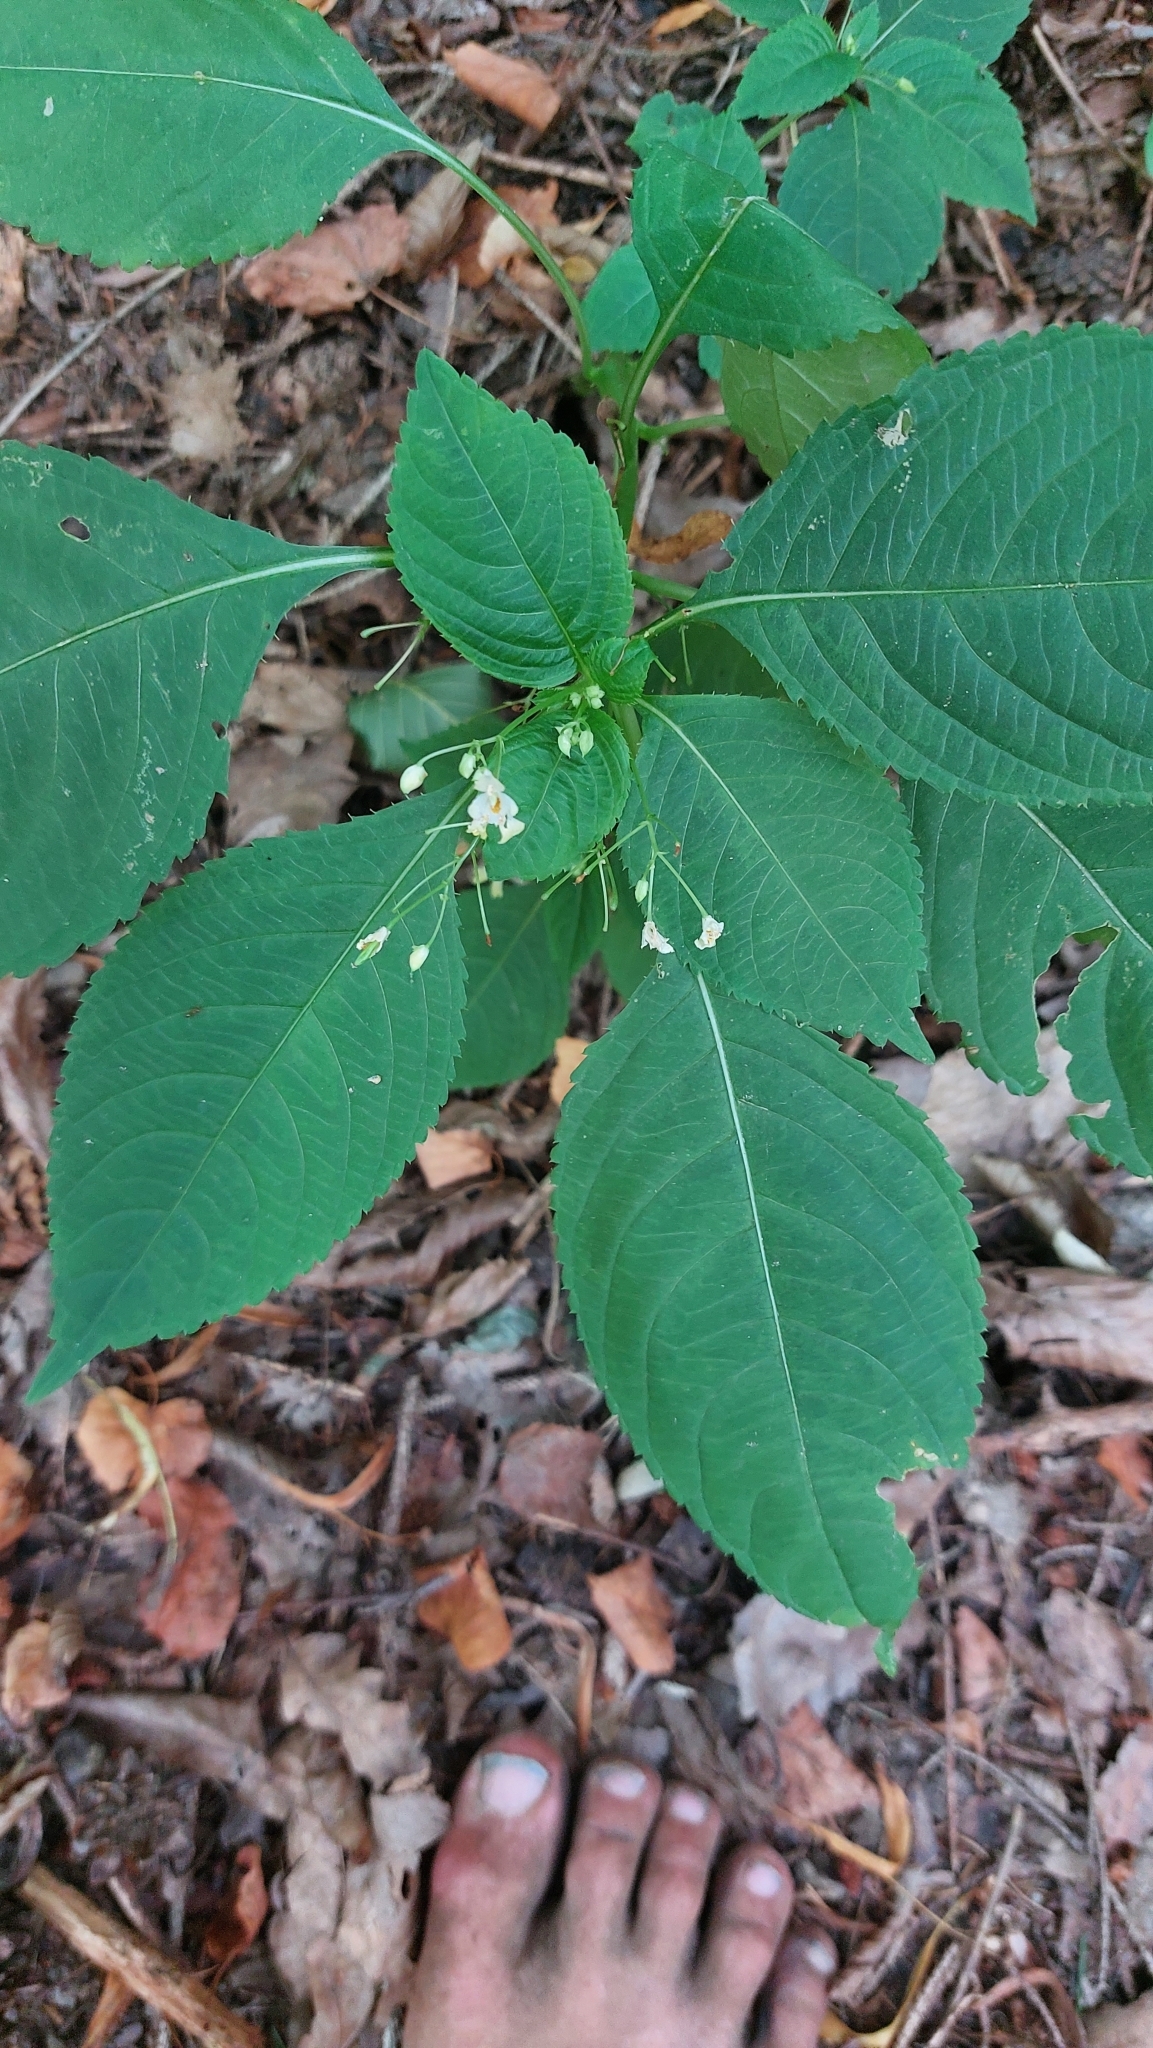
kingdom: Plantae
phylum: Tracheophyta
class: Magnoliopsida
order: Ericales
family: Balsaminaceae
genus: Impatiens
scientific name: Impatiens parviflora
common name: Small balsam
